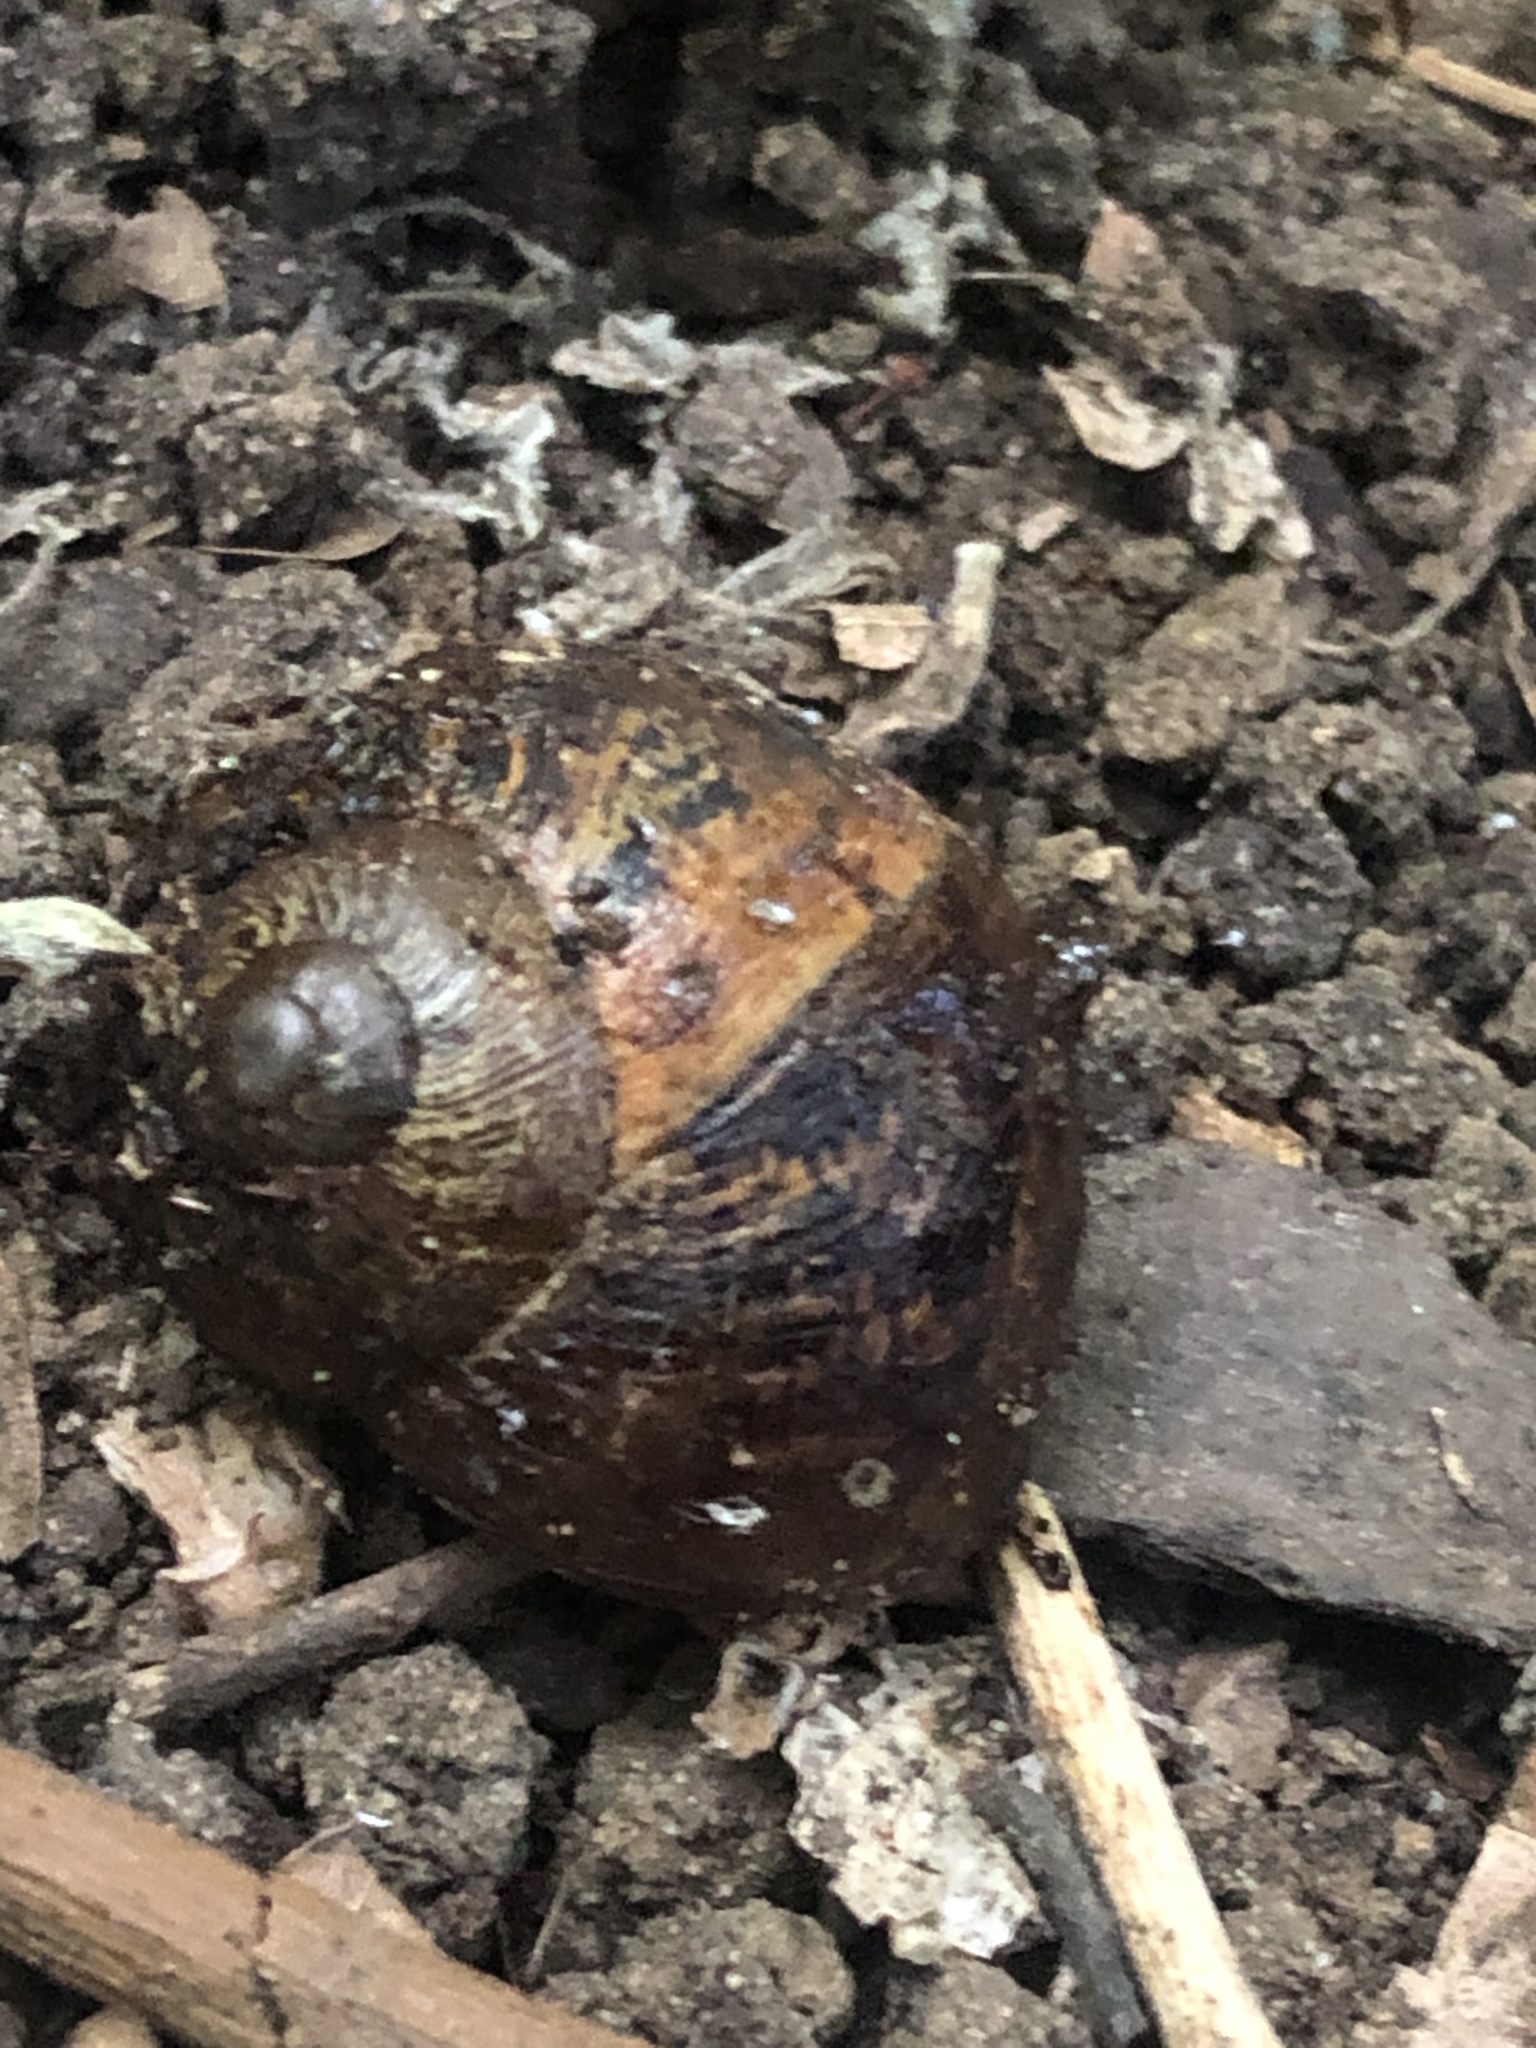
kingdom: Animalia
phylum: Mollusca
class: Gastropoda
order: Stylommatophora
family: Helicidae
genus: Cornu
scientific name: Cornu aspersum
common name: Brown garden snail
